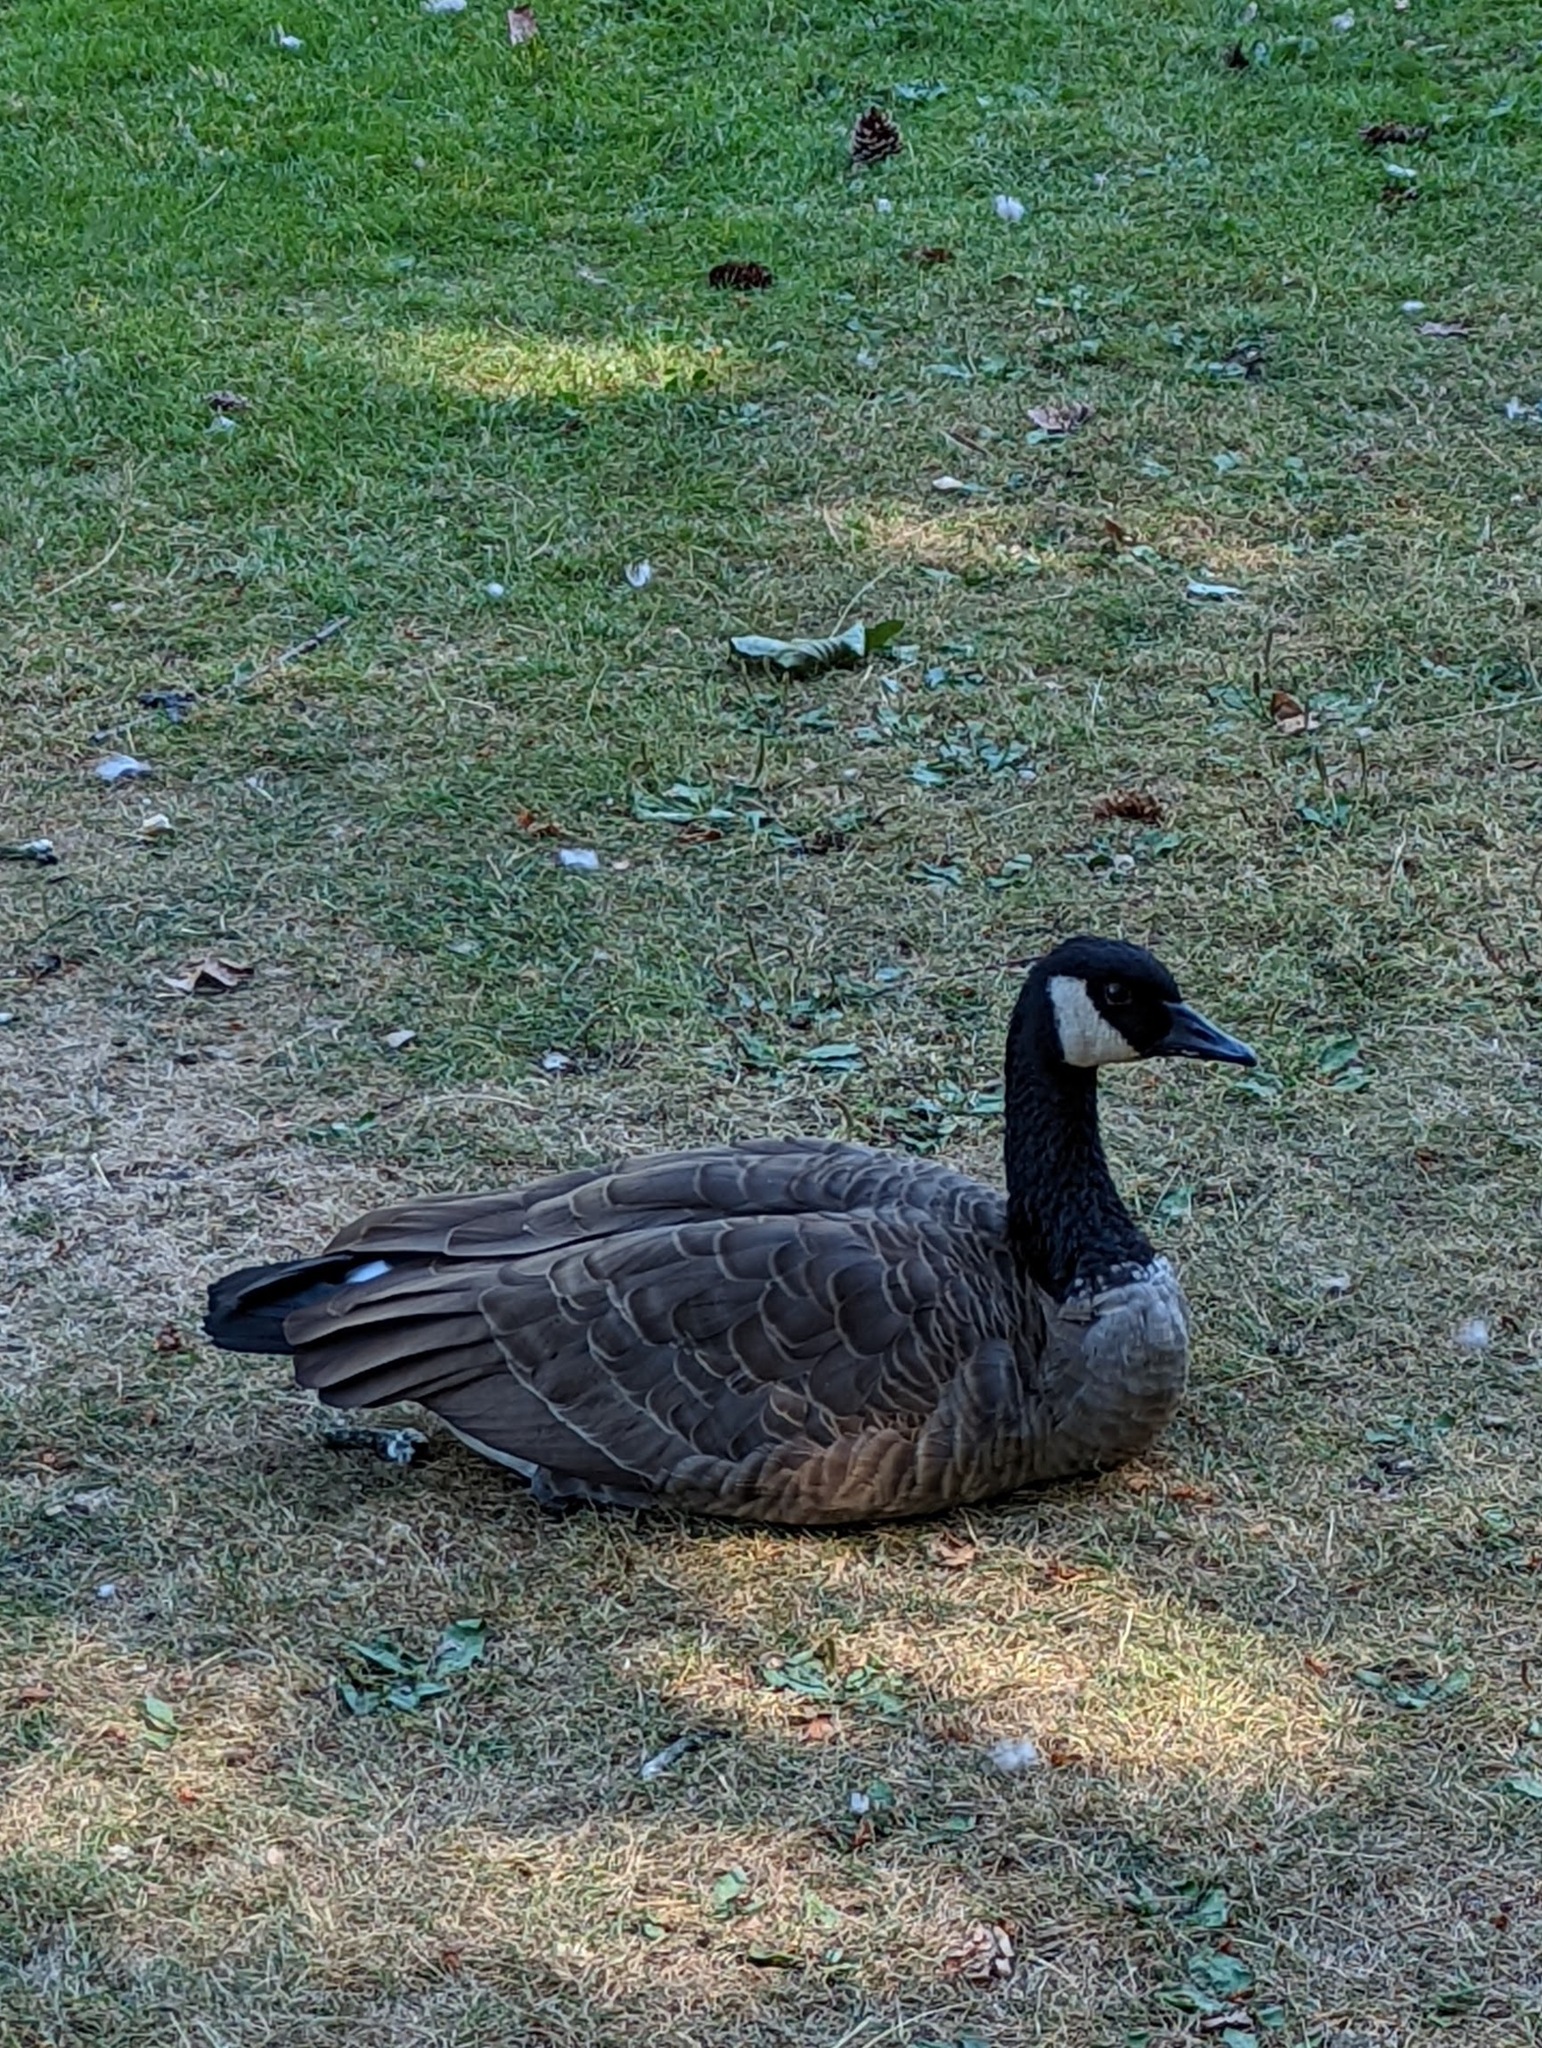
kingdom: Animalia
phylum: Chordata
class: Aves
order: Anseriformes
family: Anatidae
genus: Branta
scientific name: Branta canadensis
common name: Canada goose
